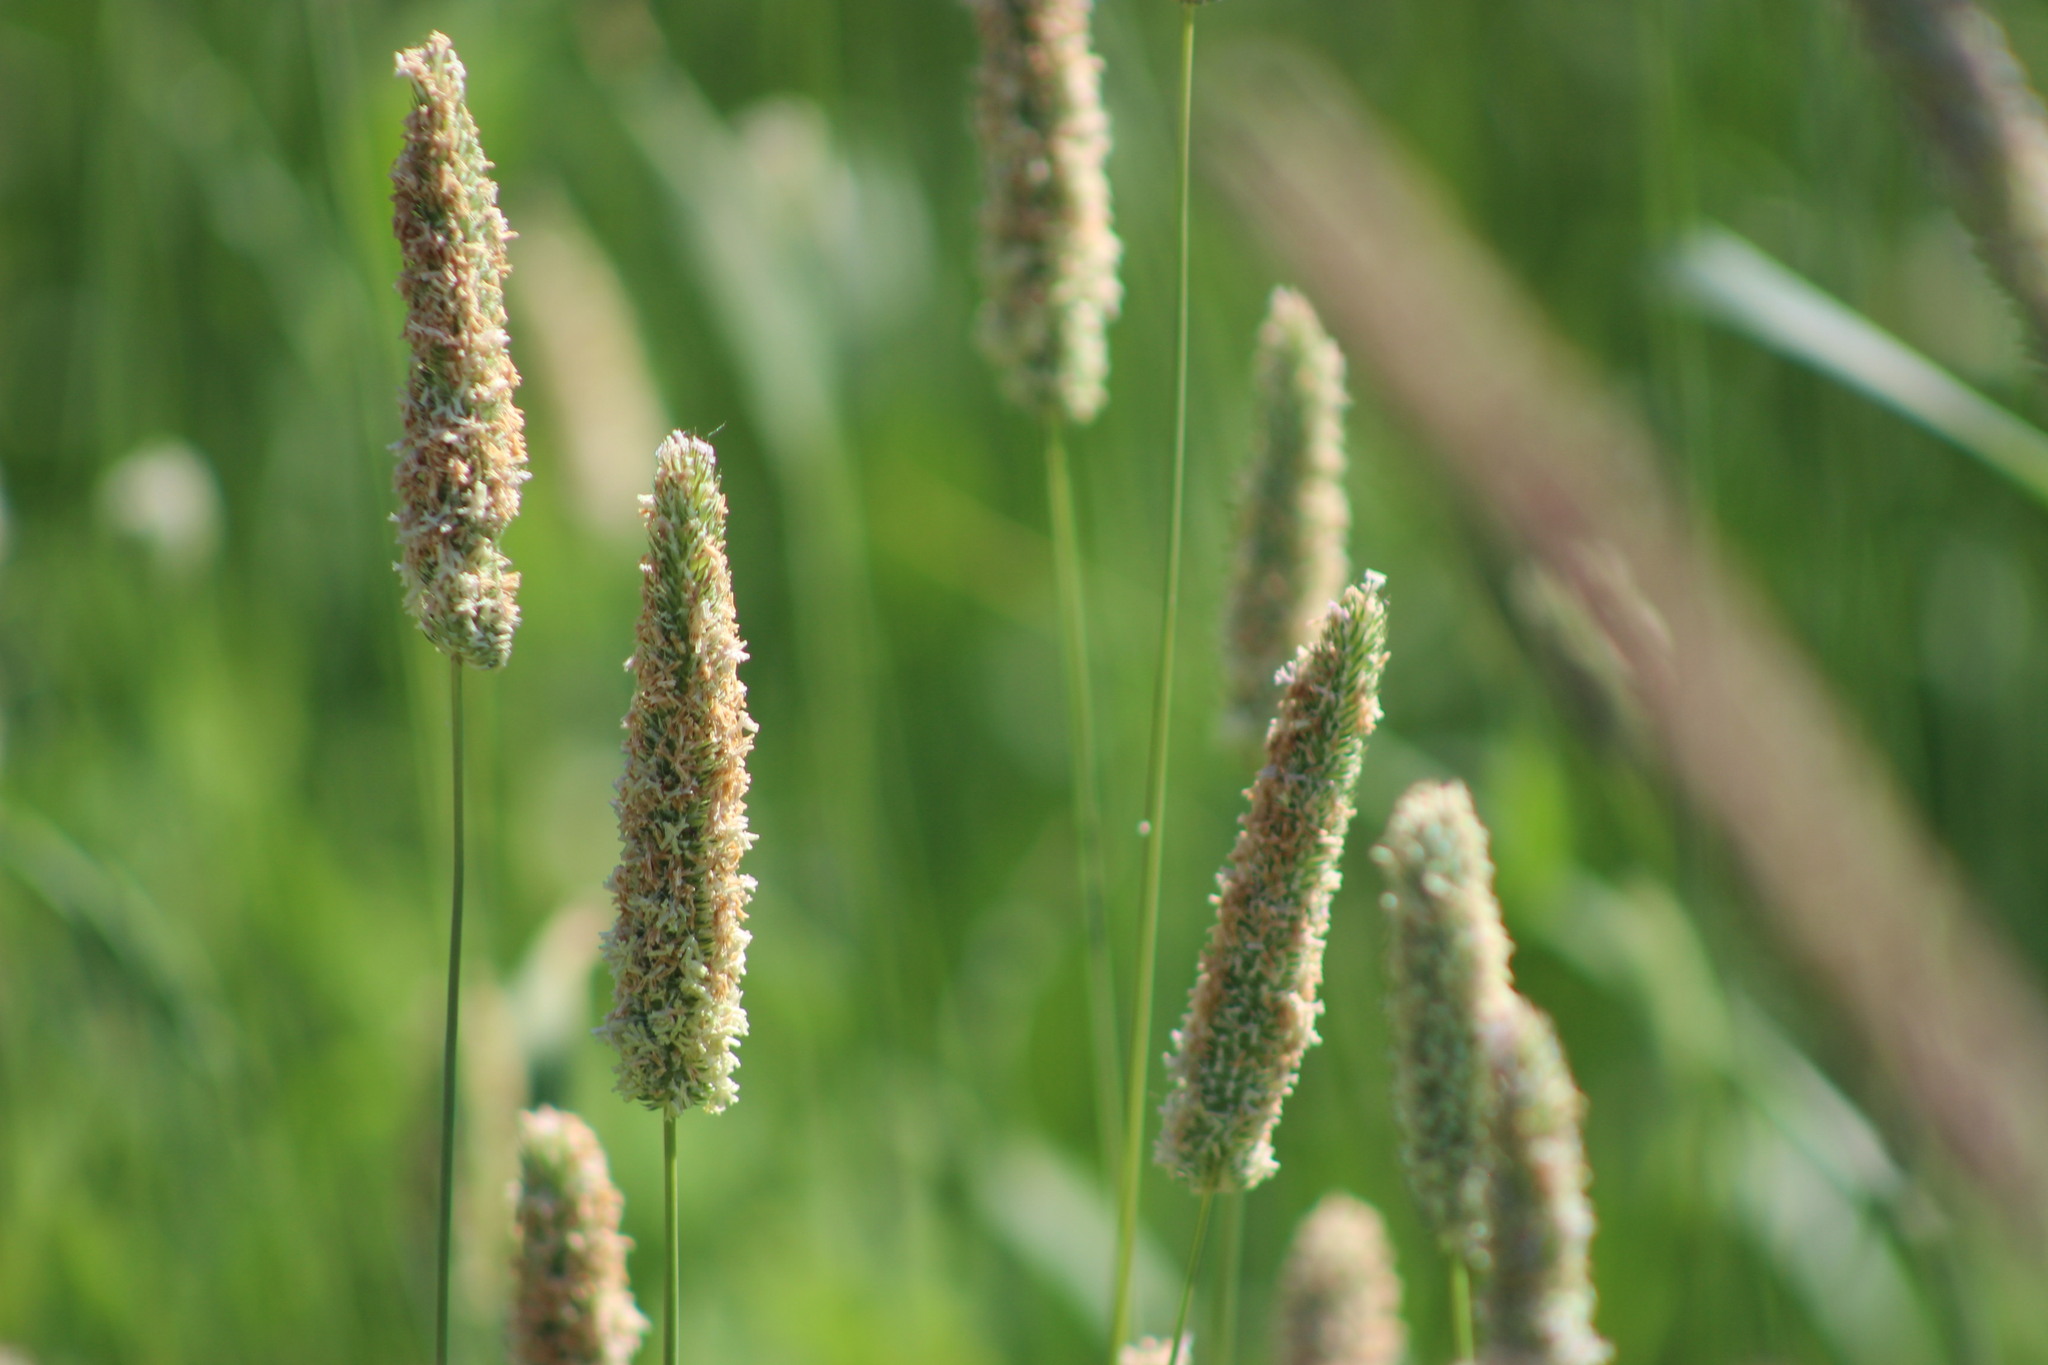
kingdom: Plantae
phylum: Tracheophyta
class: Liliopsida
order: Poales
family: Poaceae
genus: Phleum
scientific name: Phleum pratense
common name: Timothy grass
